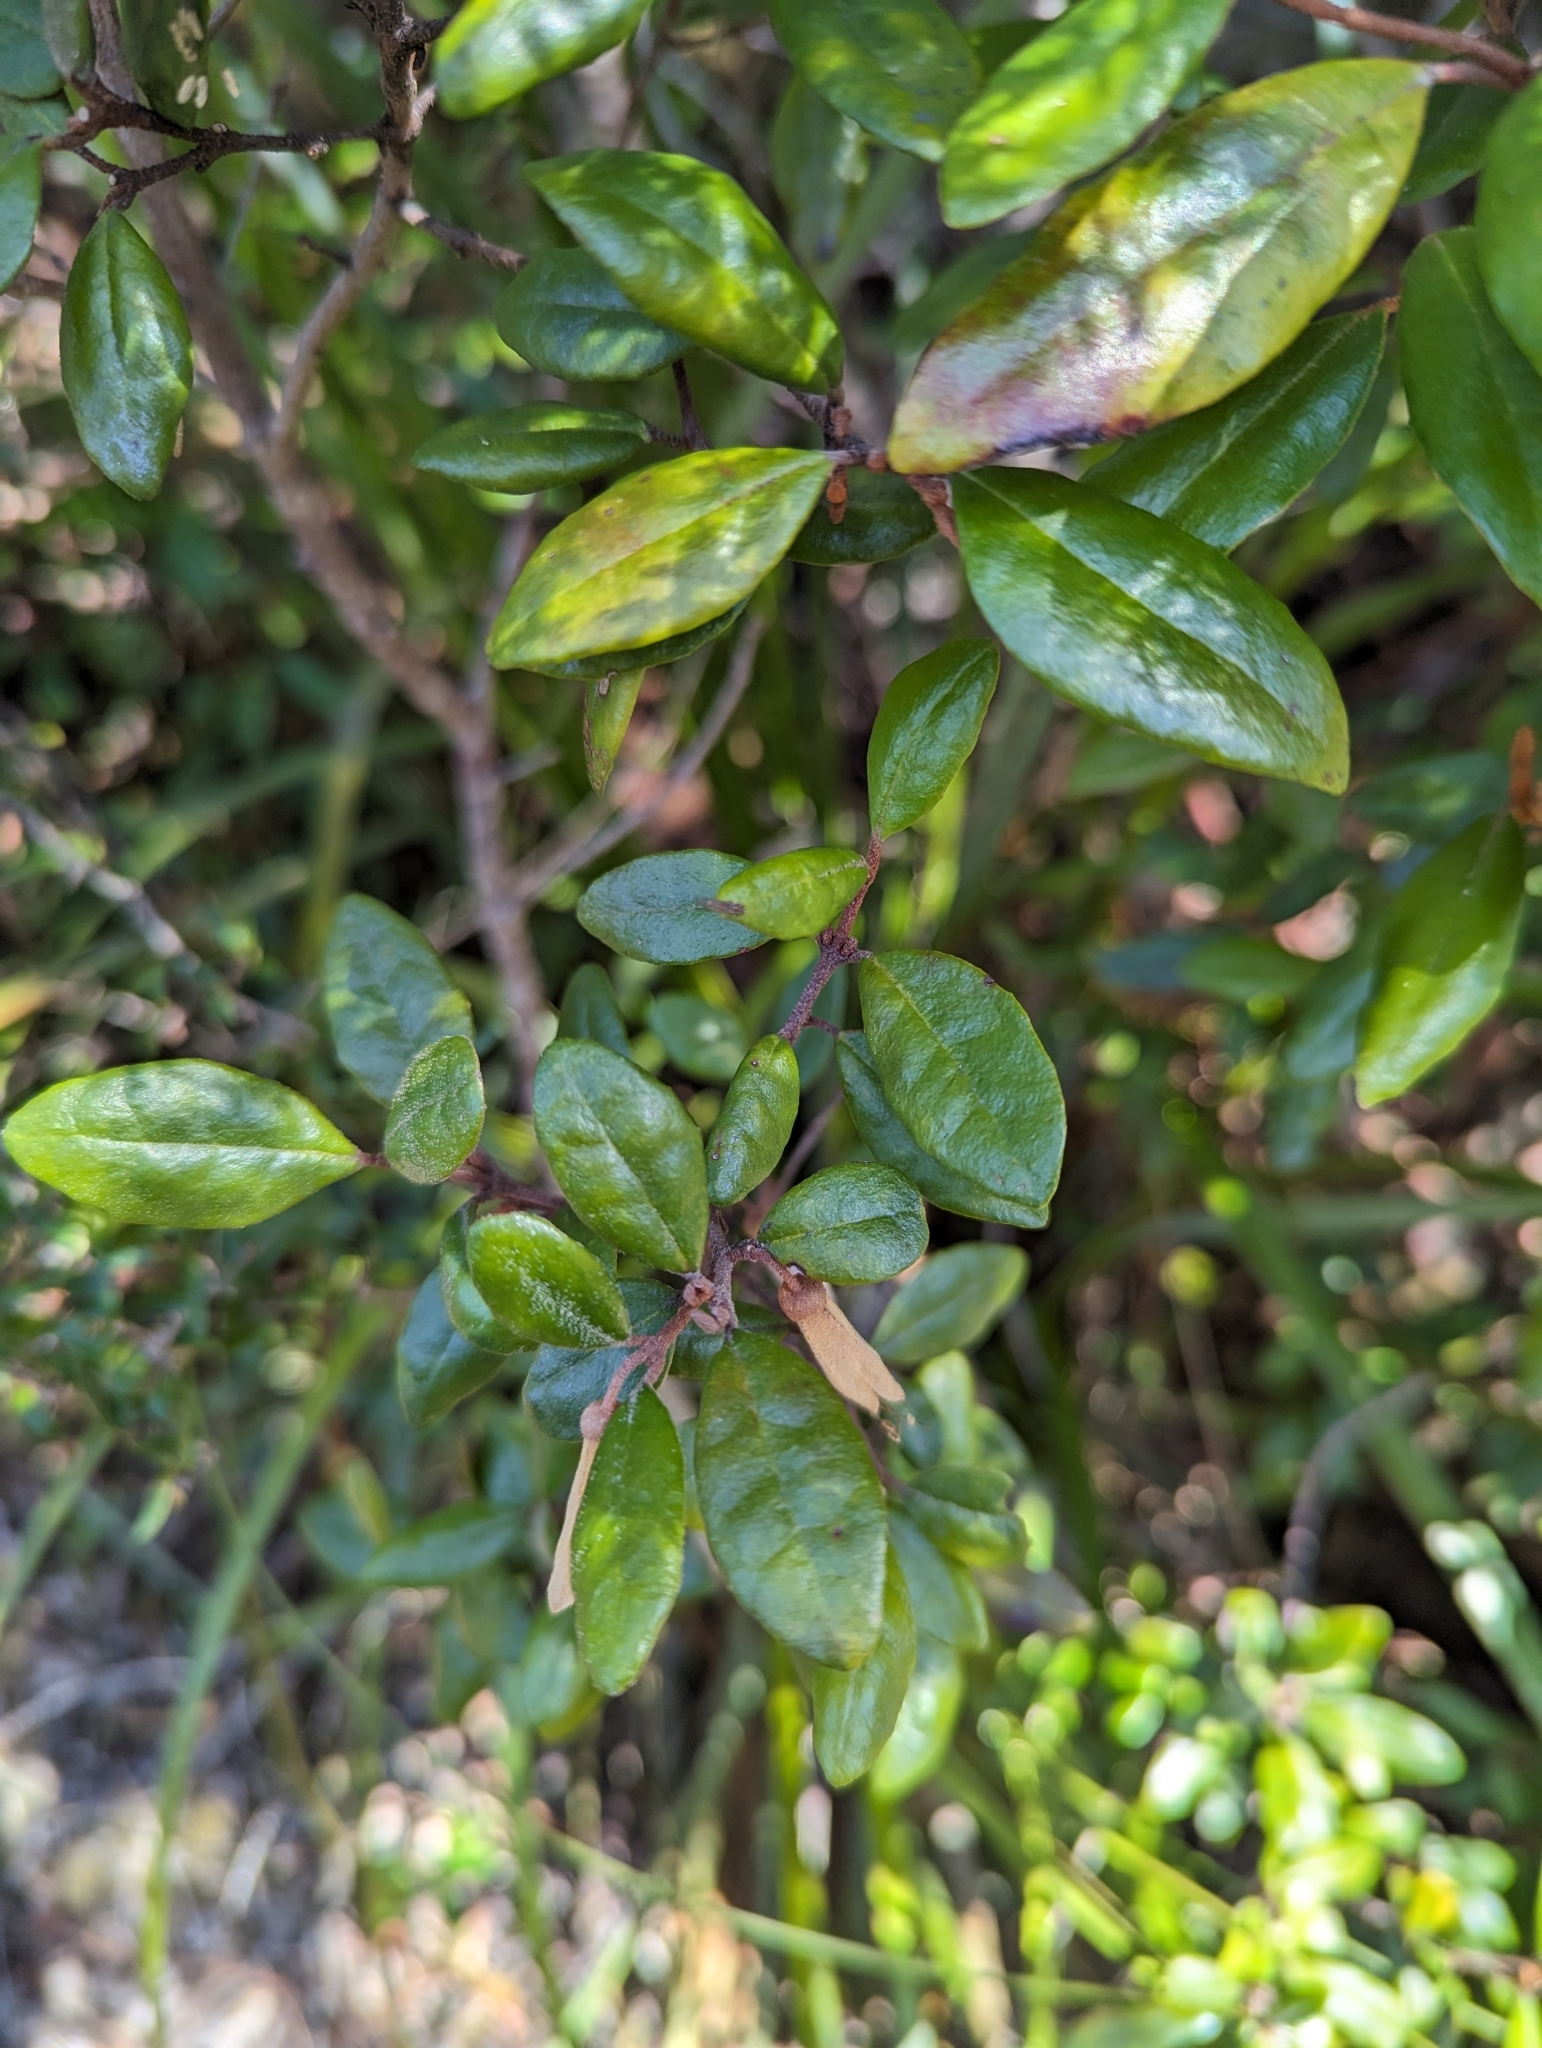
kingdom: Plantae
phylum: Tracheophyta
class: Magnoliopsida
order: Sapindales
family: Rutaceae
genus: Correa
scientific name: Correa lawrenceana
